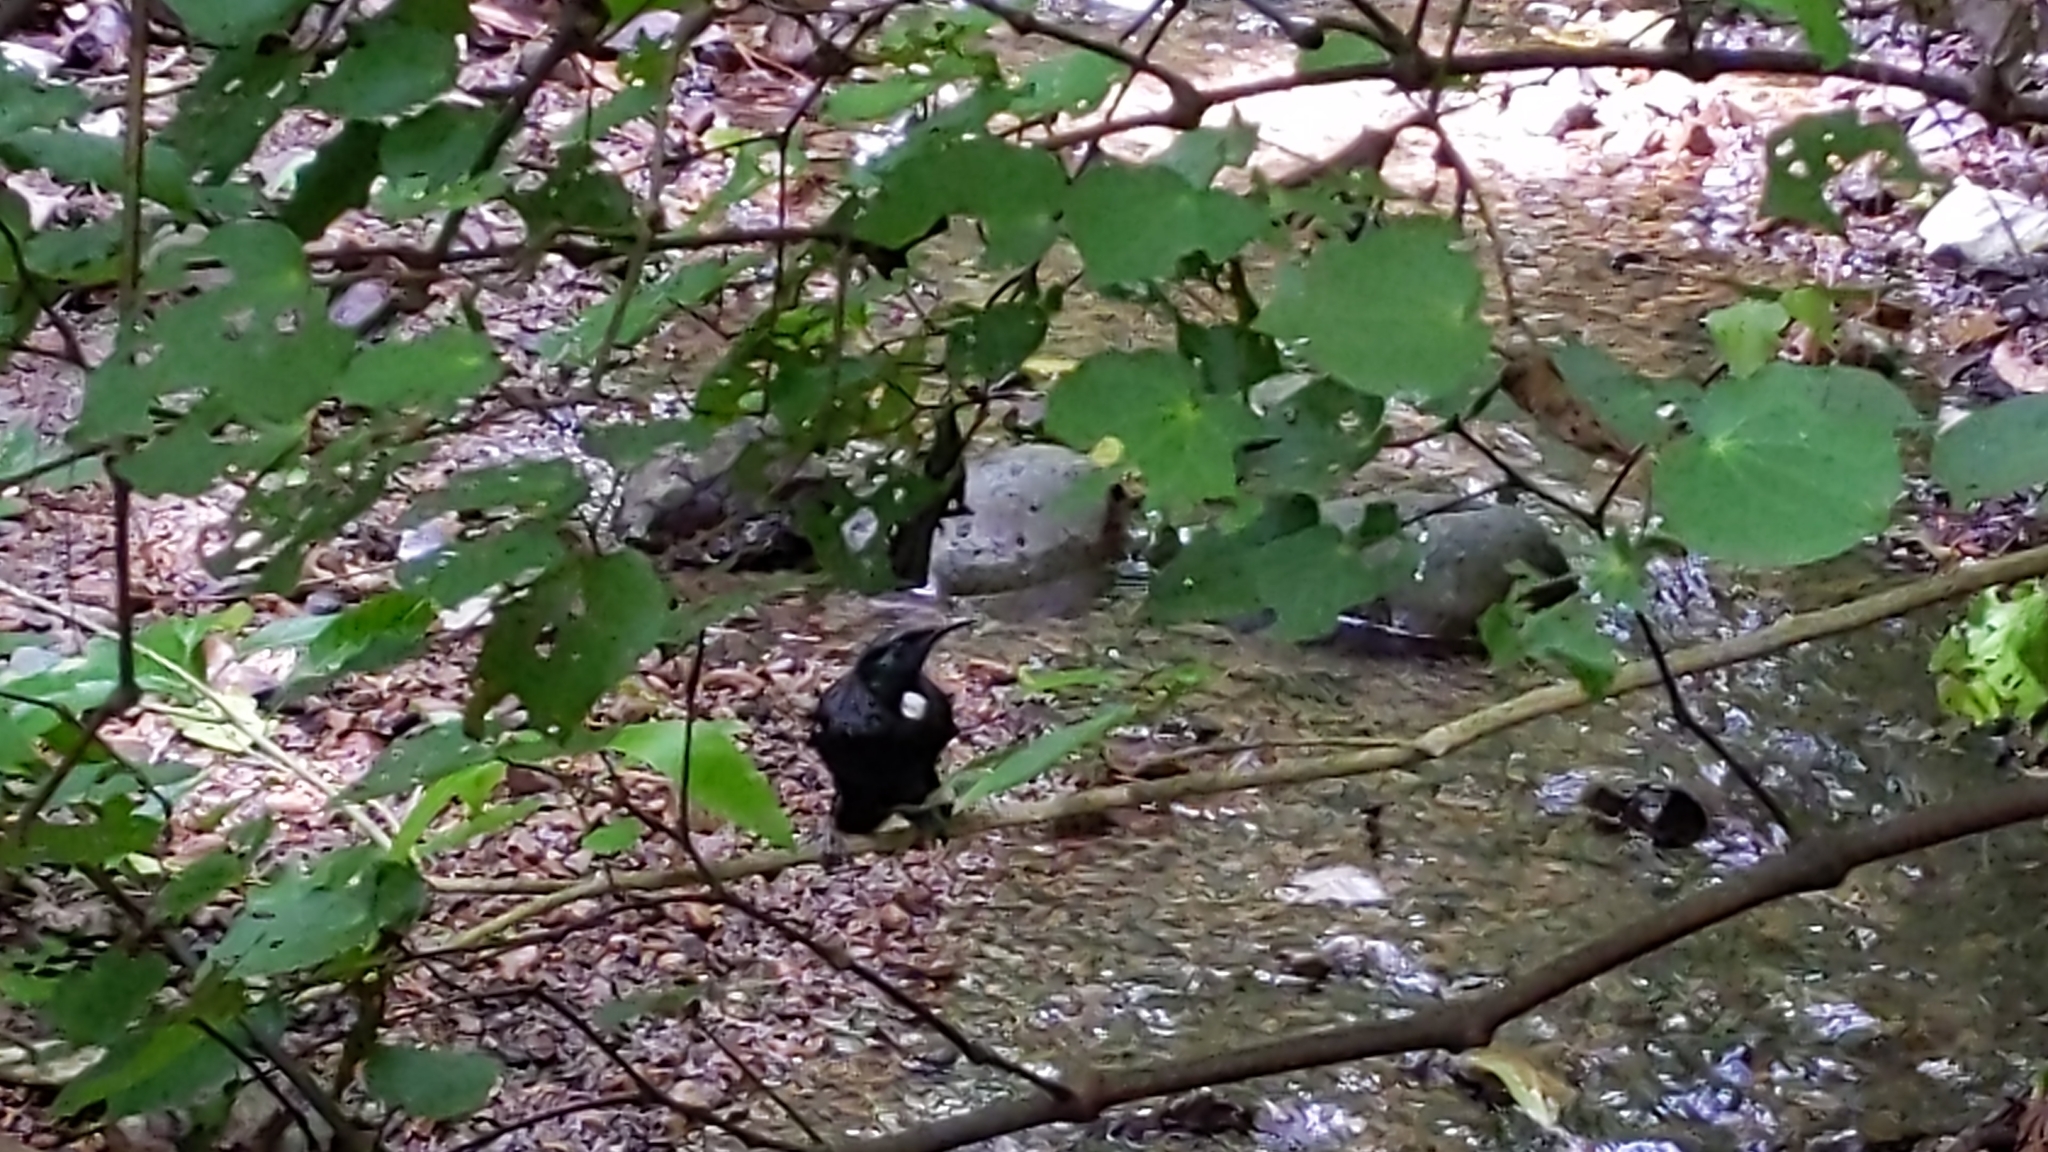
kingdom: Animalia
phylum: Chordata
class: Aves
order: Passeriformes
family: Meliphagidae
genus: Prosthemadera
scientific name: Prosthemadera novaeseelandiae
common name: Tui
